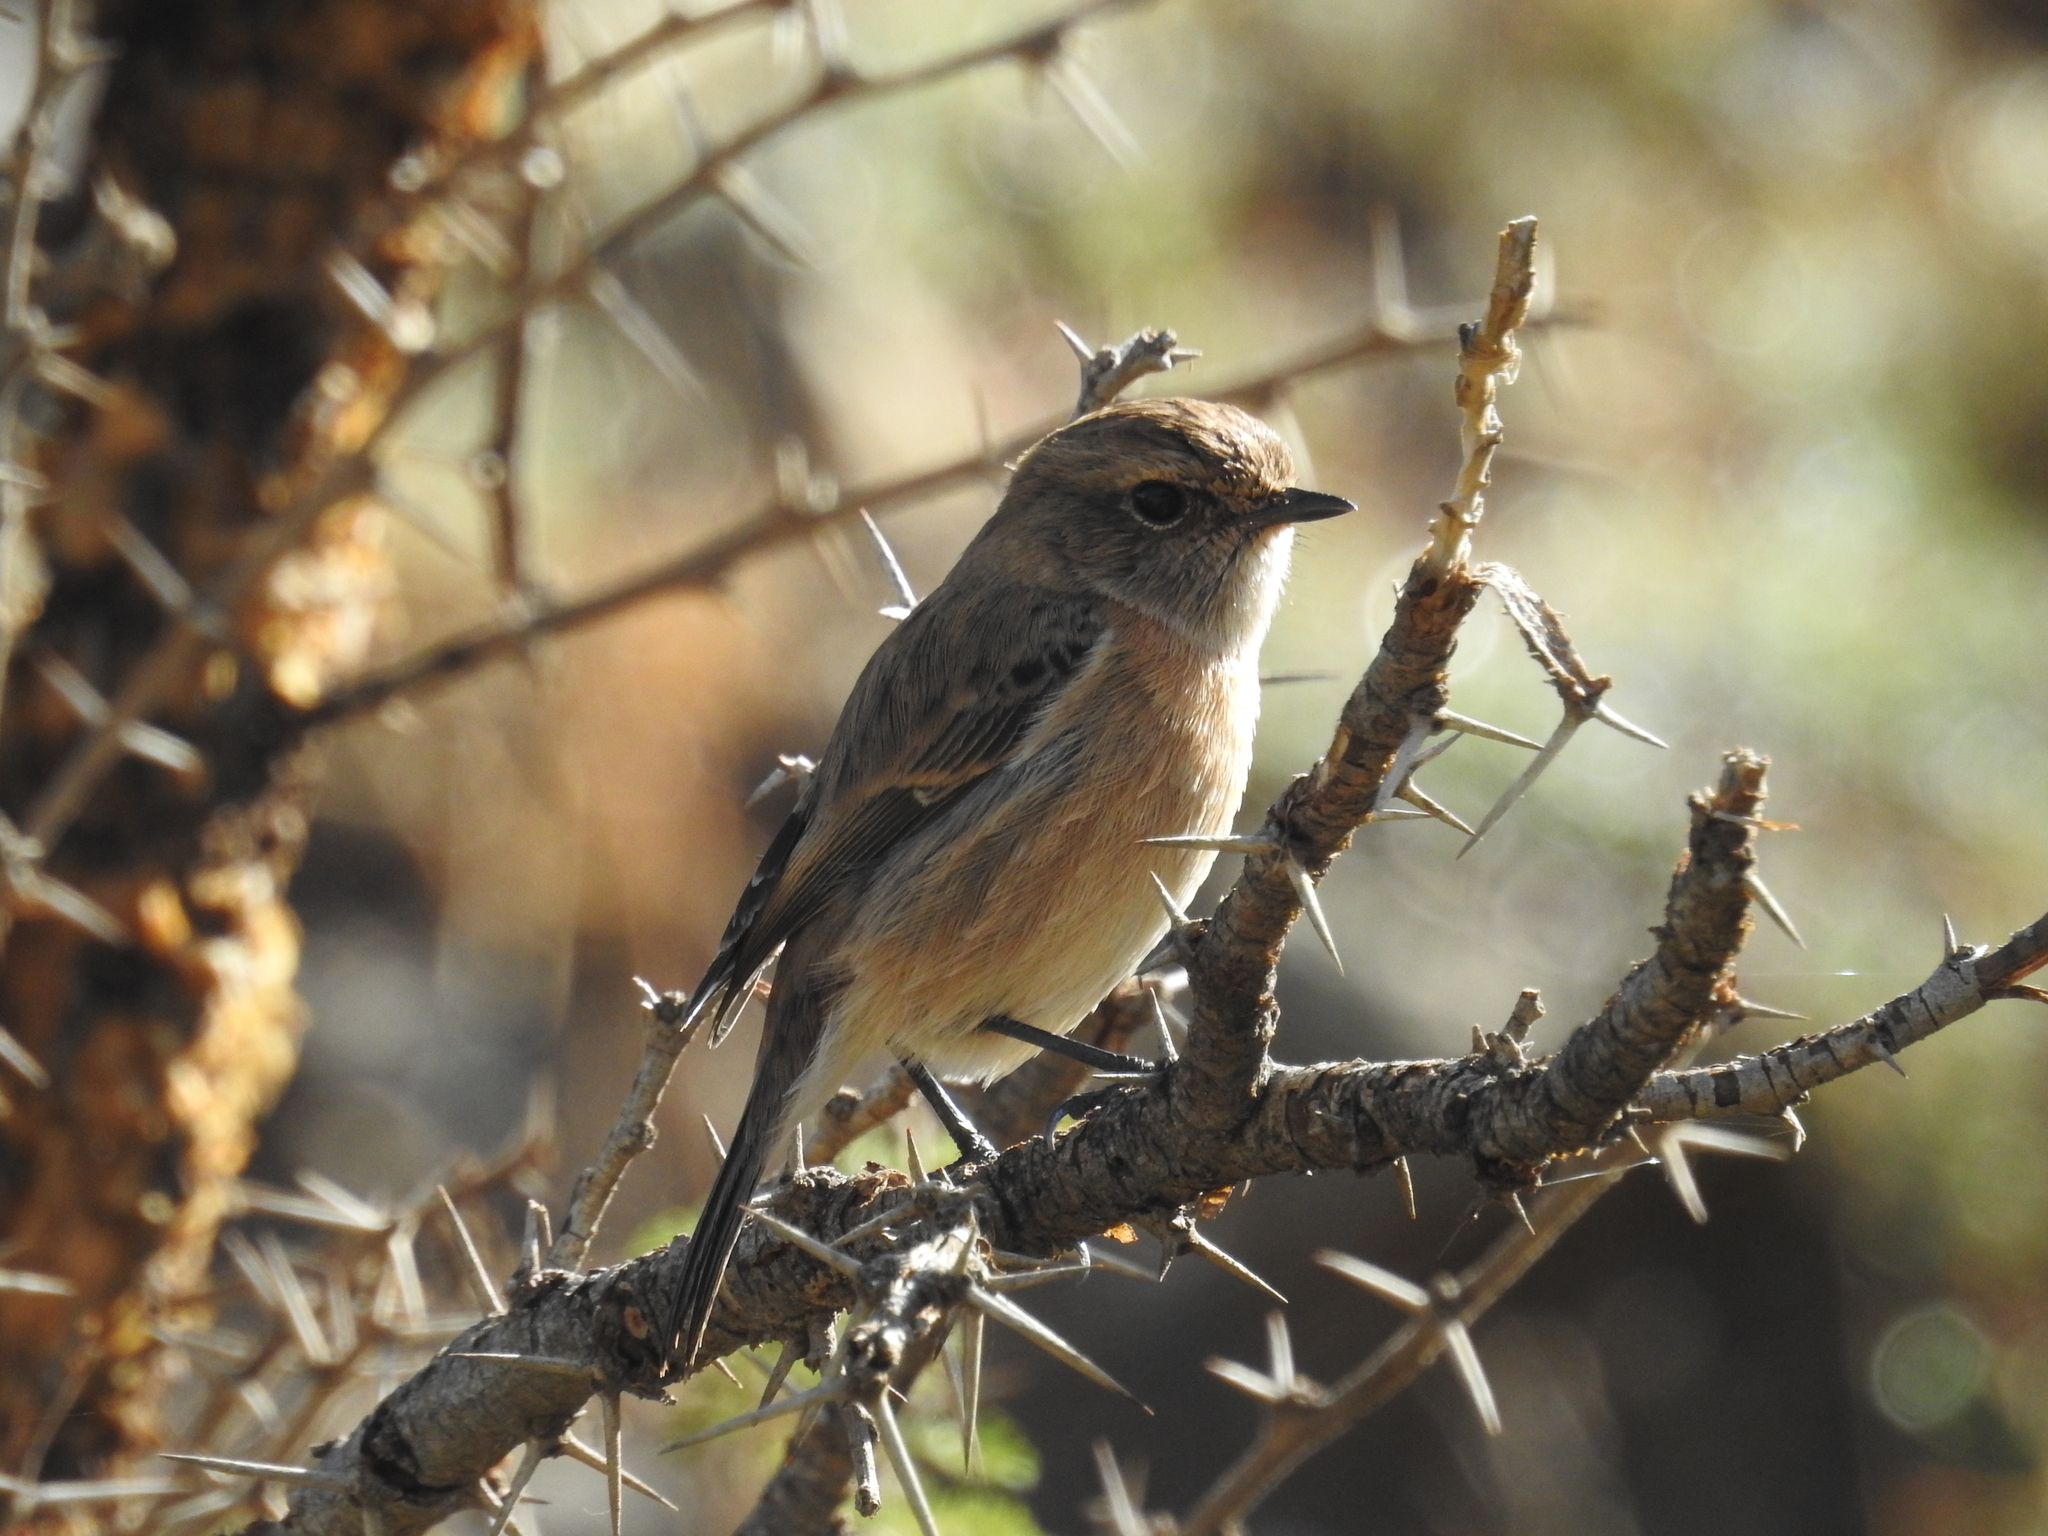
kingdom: Animalia
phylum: Chordata
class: Aves
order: Passeriformes
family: Muscicapidae
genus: Saxicola
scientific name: Saxicola torquatus
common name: African stonechat
